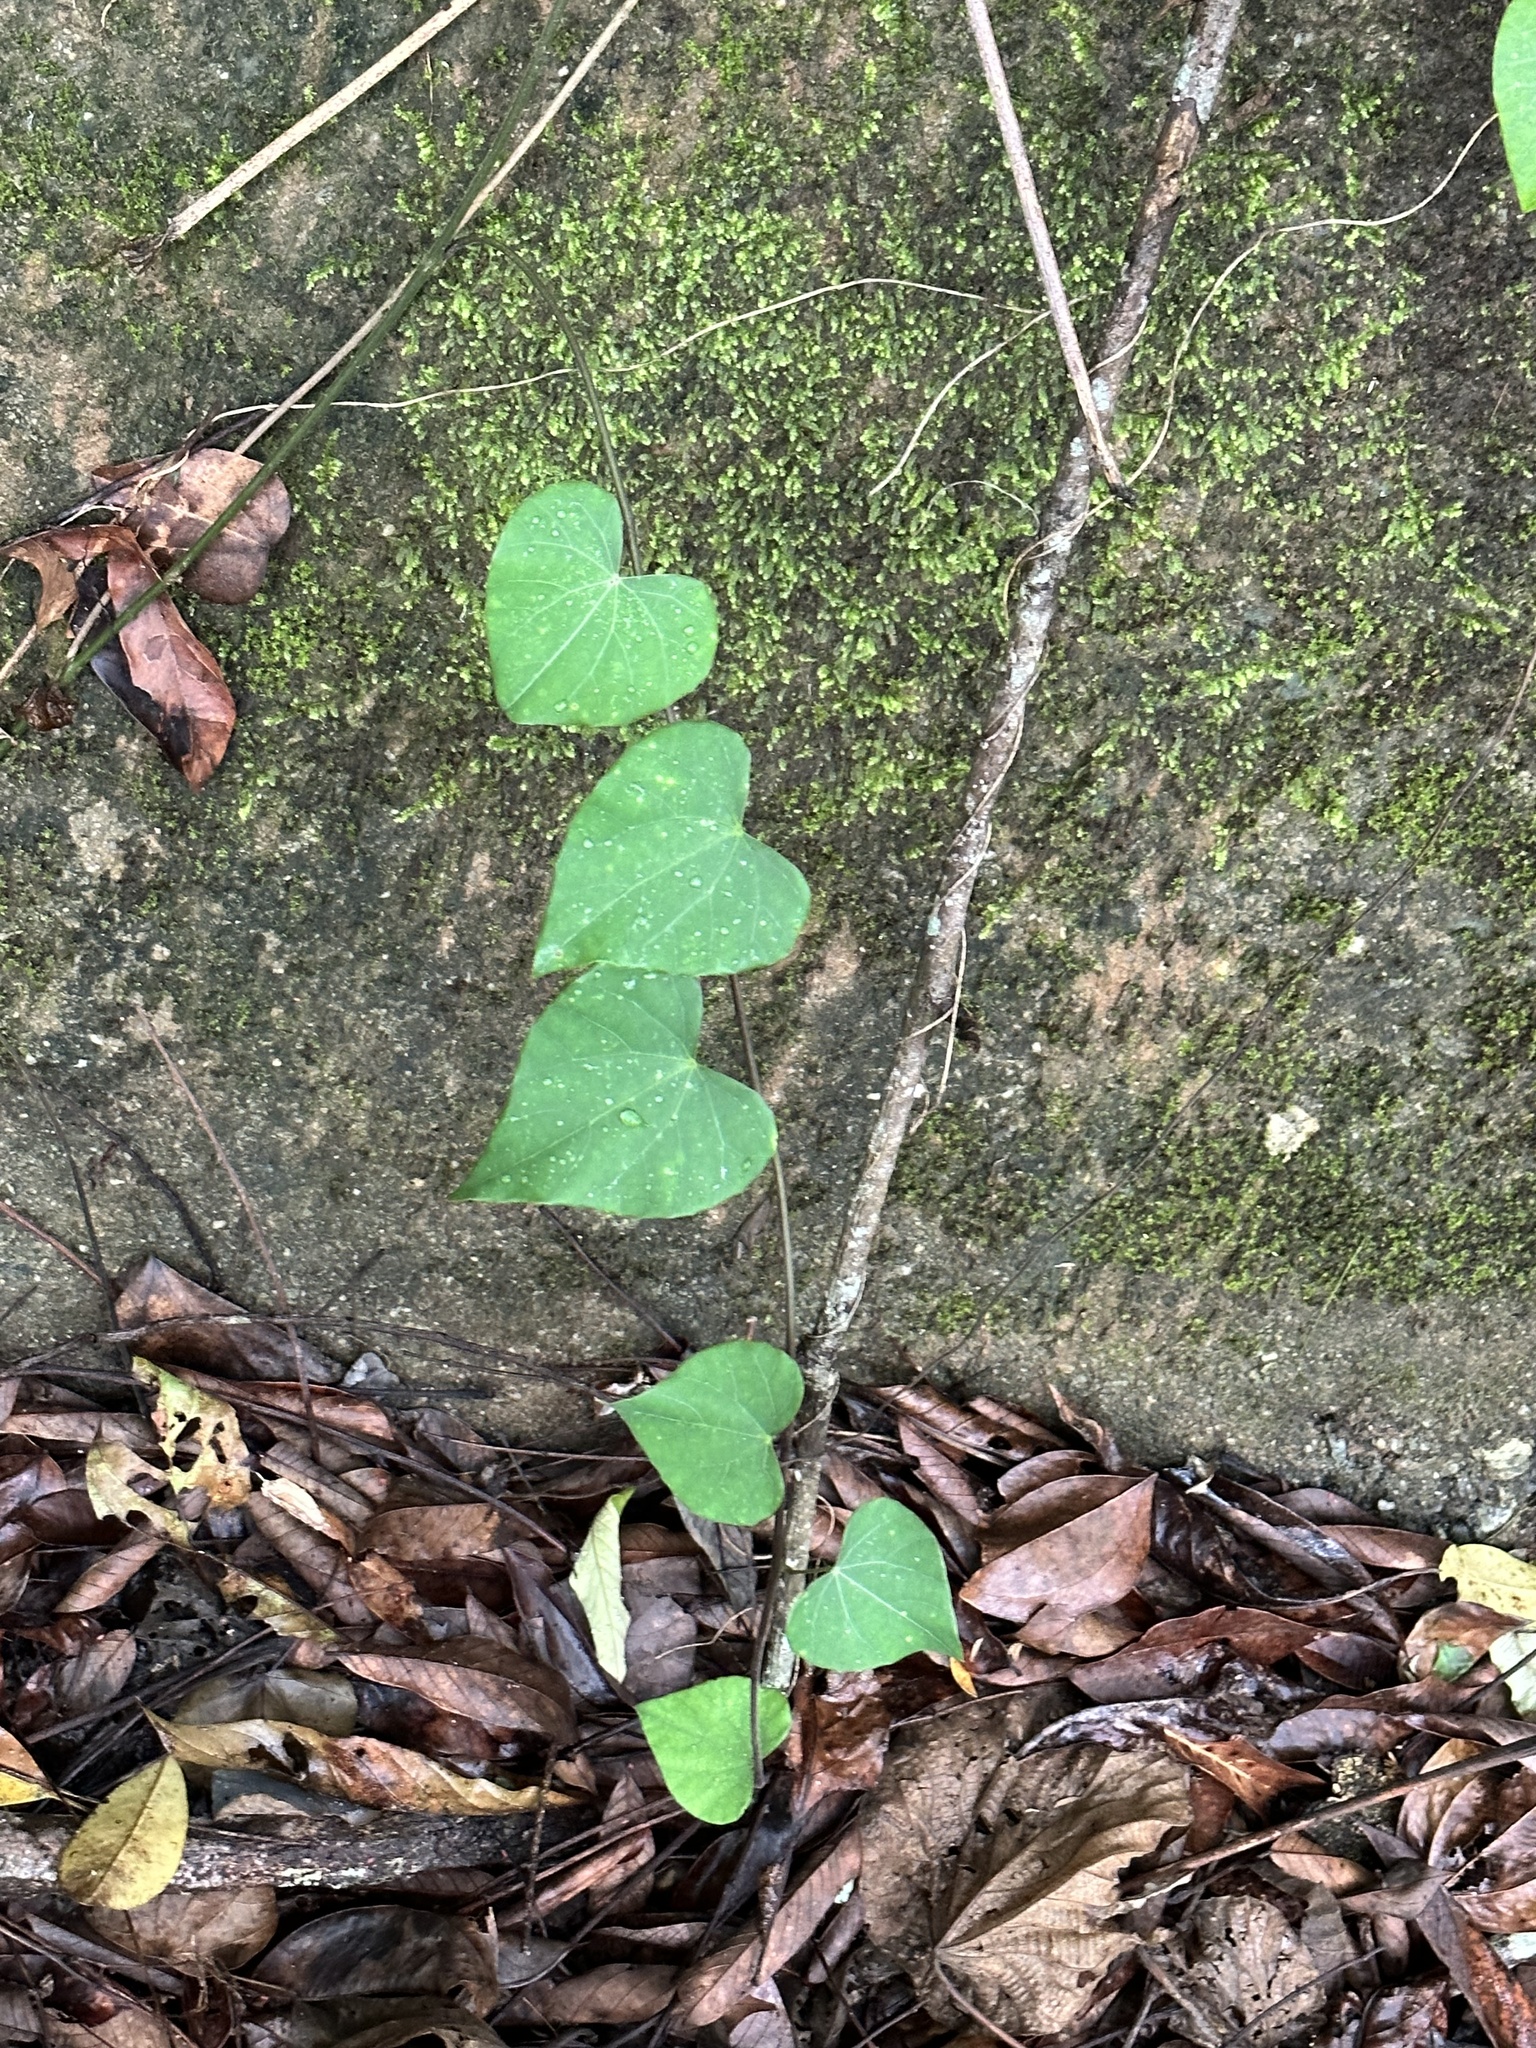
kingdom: Plantae
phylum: Tracheophyta
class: Magnoliopsida
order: Ranunculales
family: Menispermaceae
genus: Pericampylus
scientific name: Pericampylus glaucus
